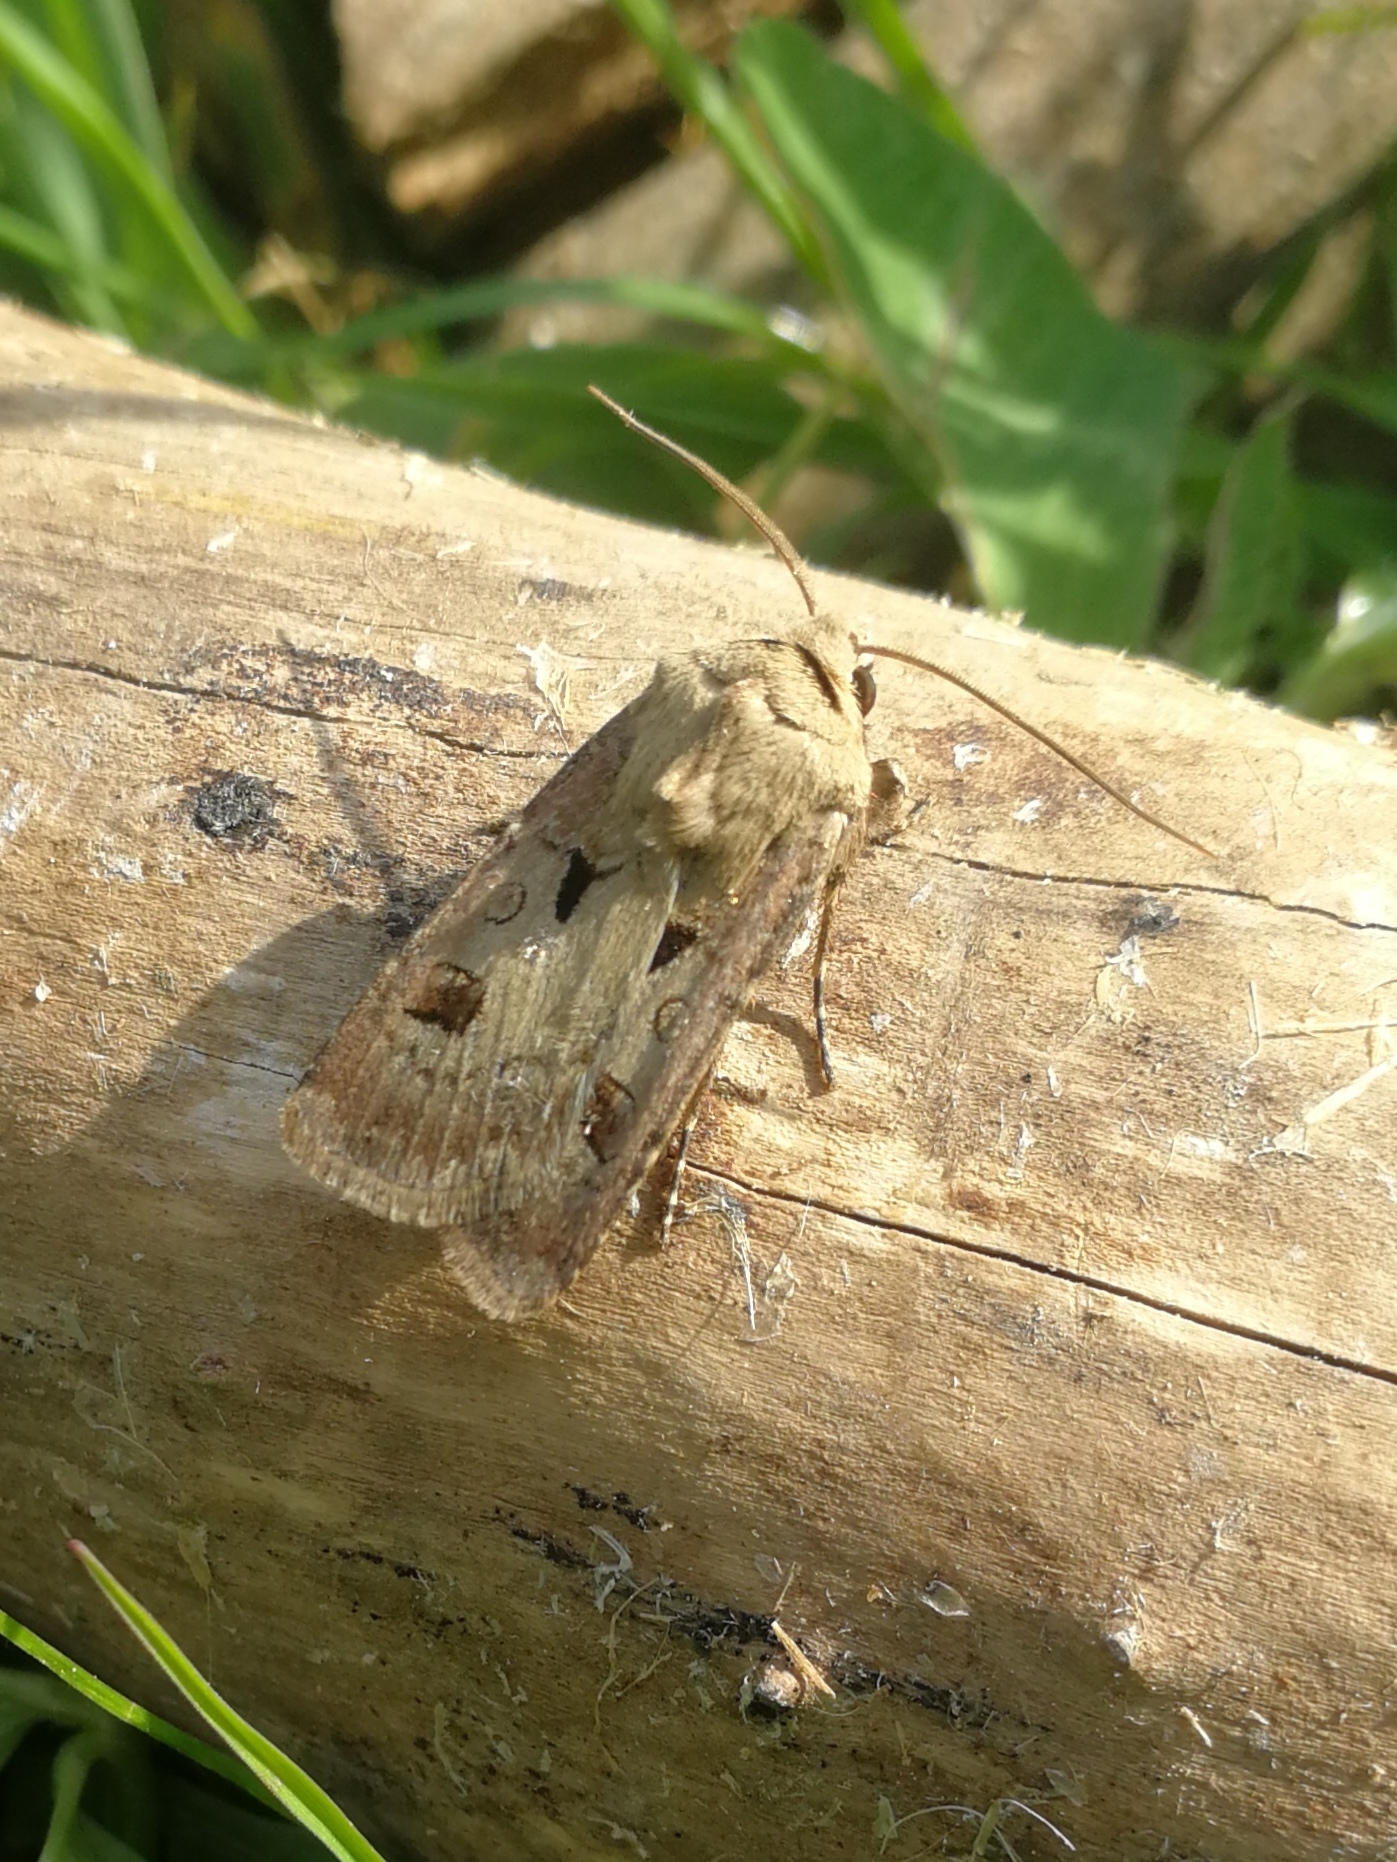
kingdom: Animalia
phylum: Arthropoda
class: Insecta
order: Lepidoptera
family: Noctuidae
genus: Agrotis
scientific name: Agrotis exclamationis
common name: Heart and dart
